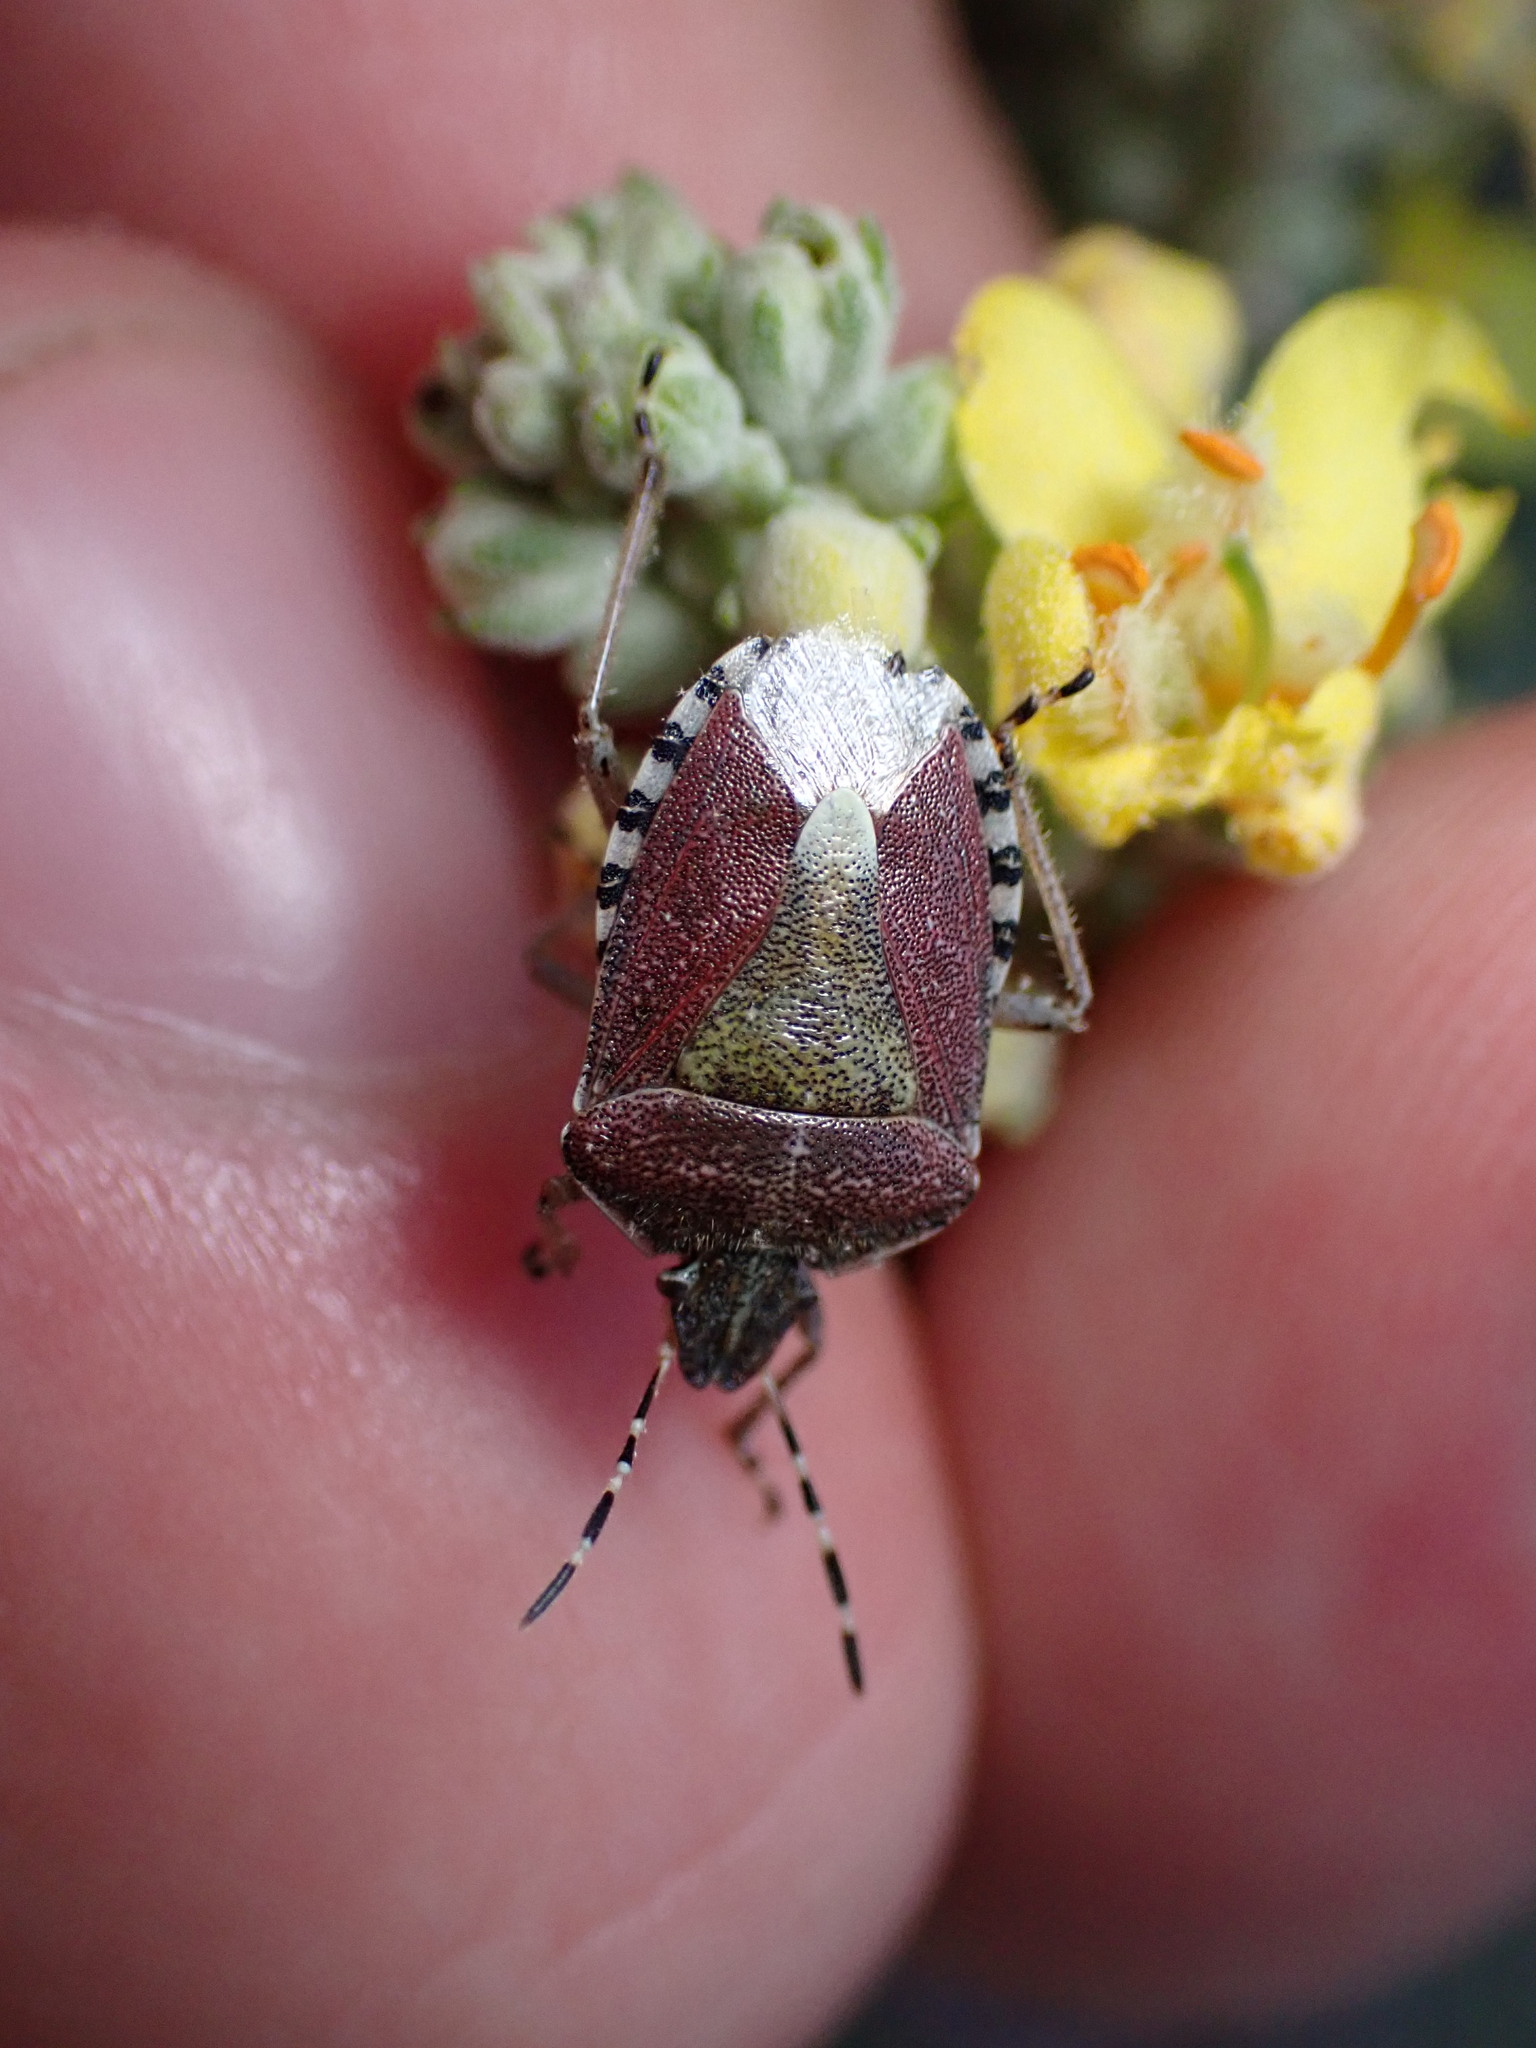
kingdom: Animalia
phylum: Arthropoda
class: Insecta
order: Hemiptera
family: Pentatomidae
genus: Dolycoris
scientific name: Dolycoris baccarum
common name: Sloe bug
